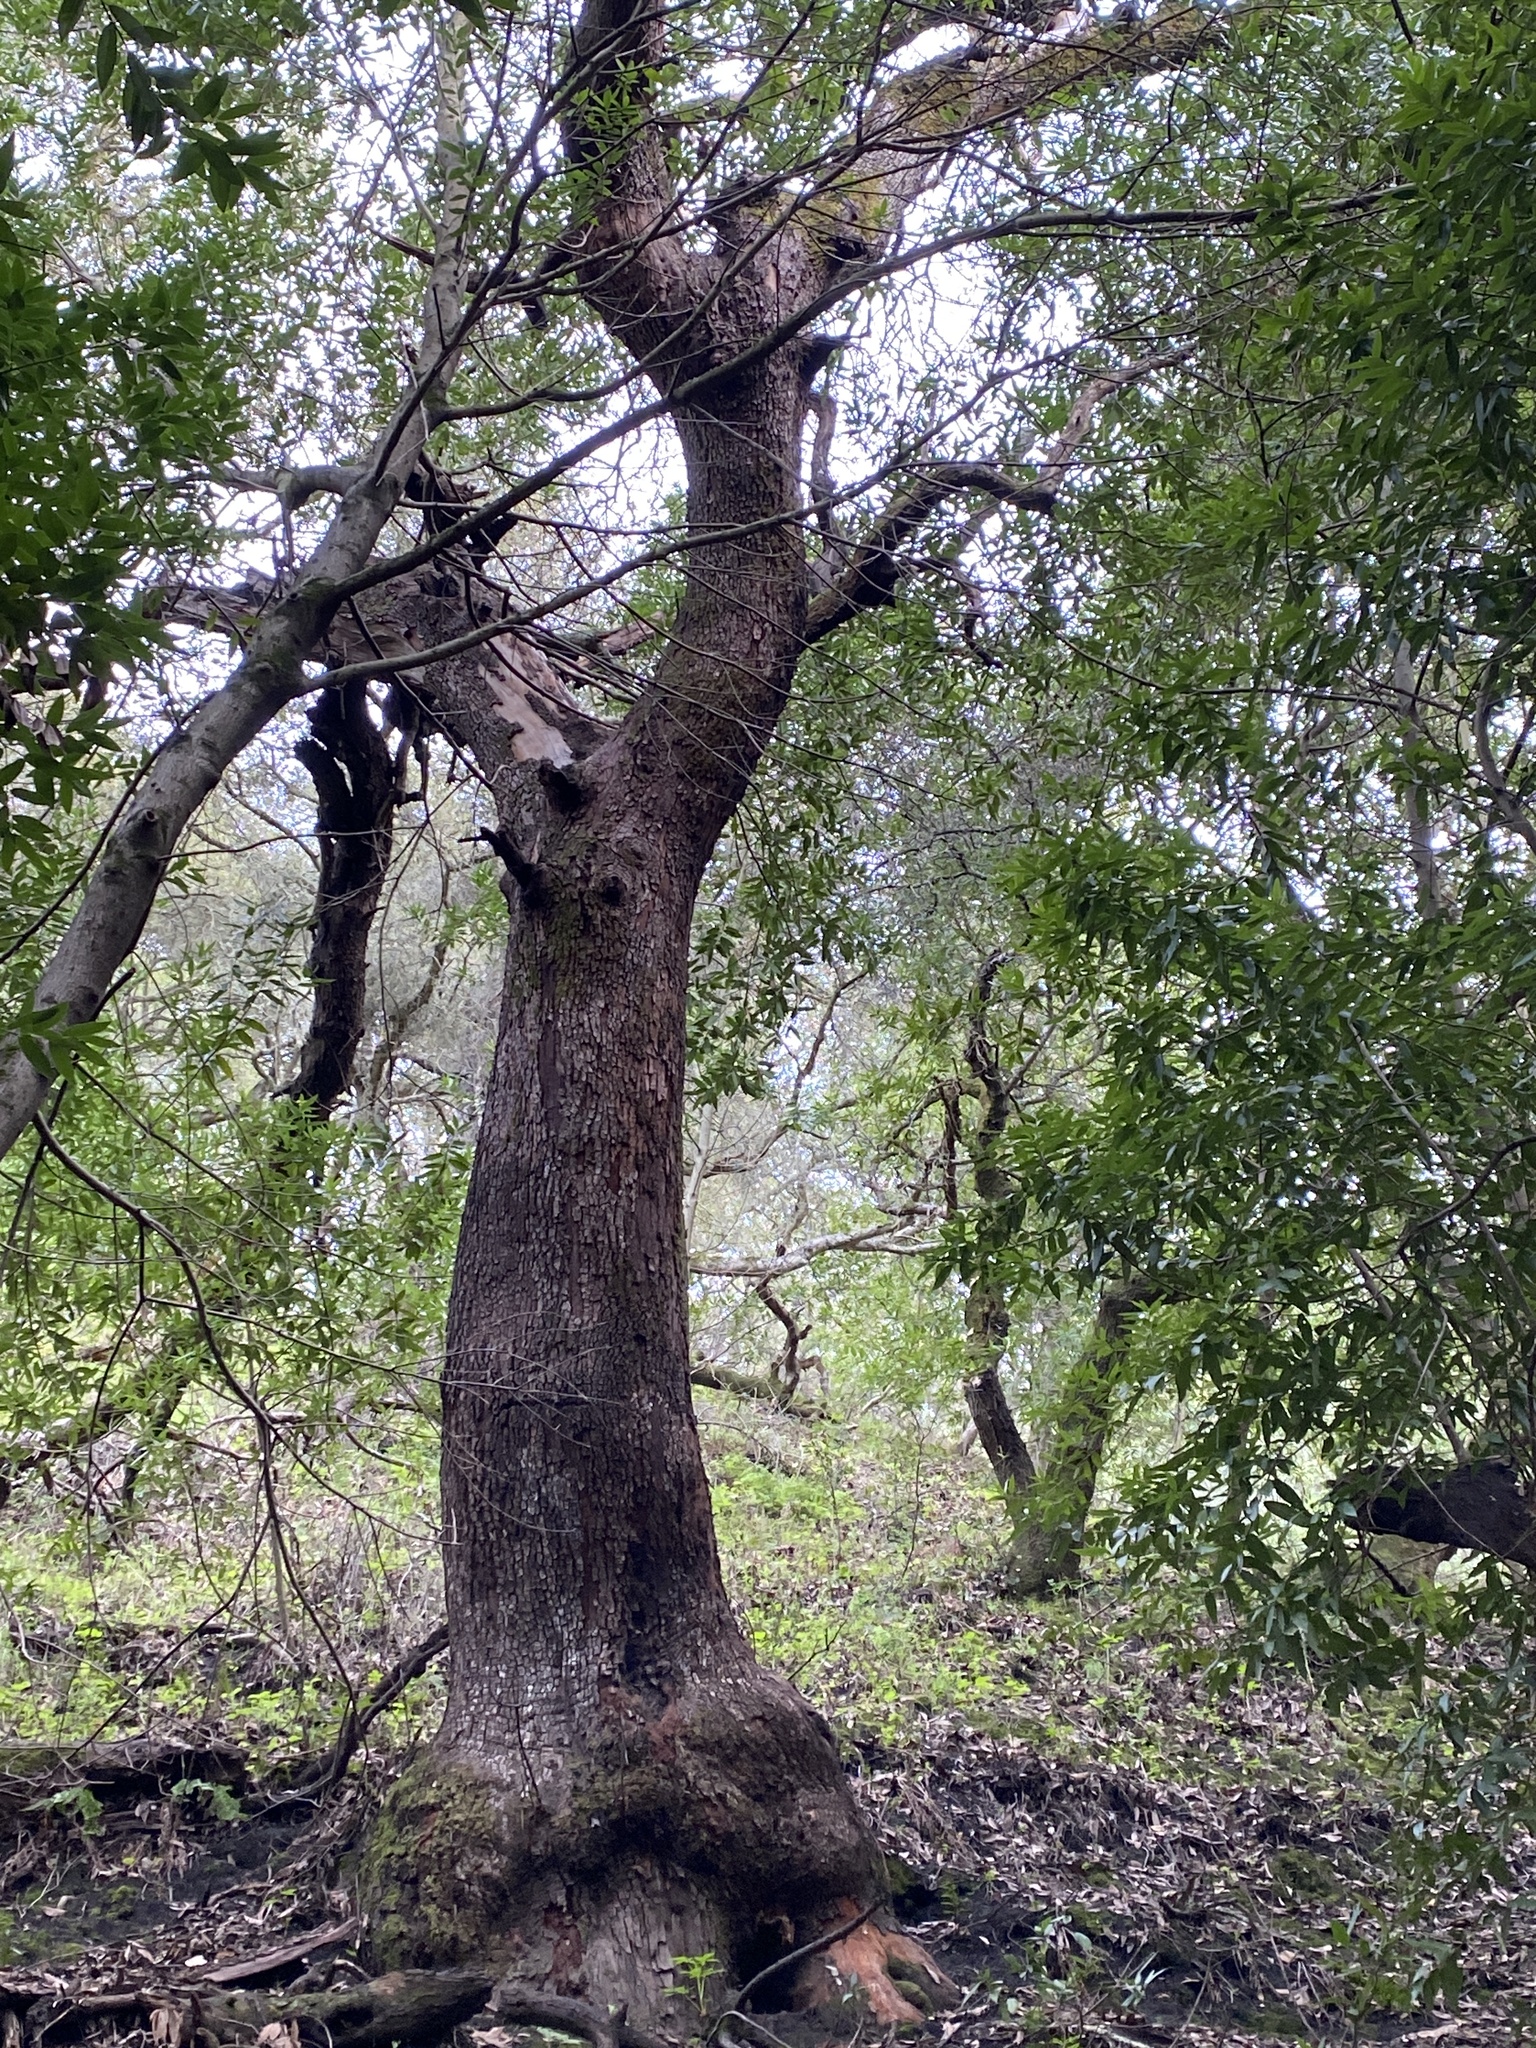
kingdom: Plantae
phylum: Tracheophyta
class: Magnoliopsida
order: Ericales
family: Ericaceae
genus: Arbutus
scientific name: Arbutus menziesii
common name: Pacific madrone
